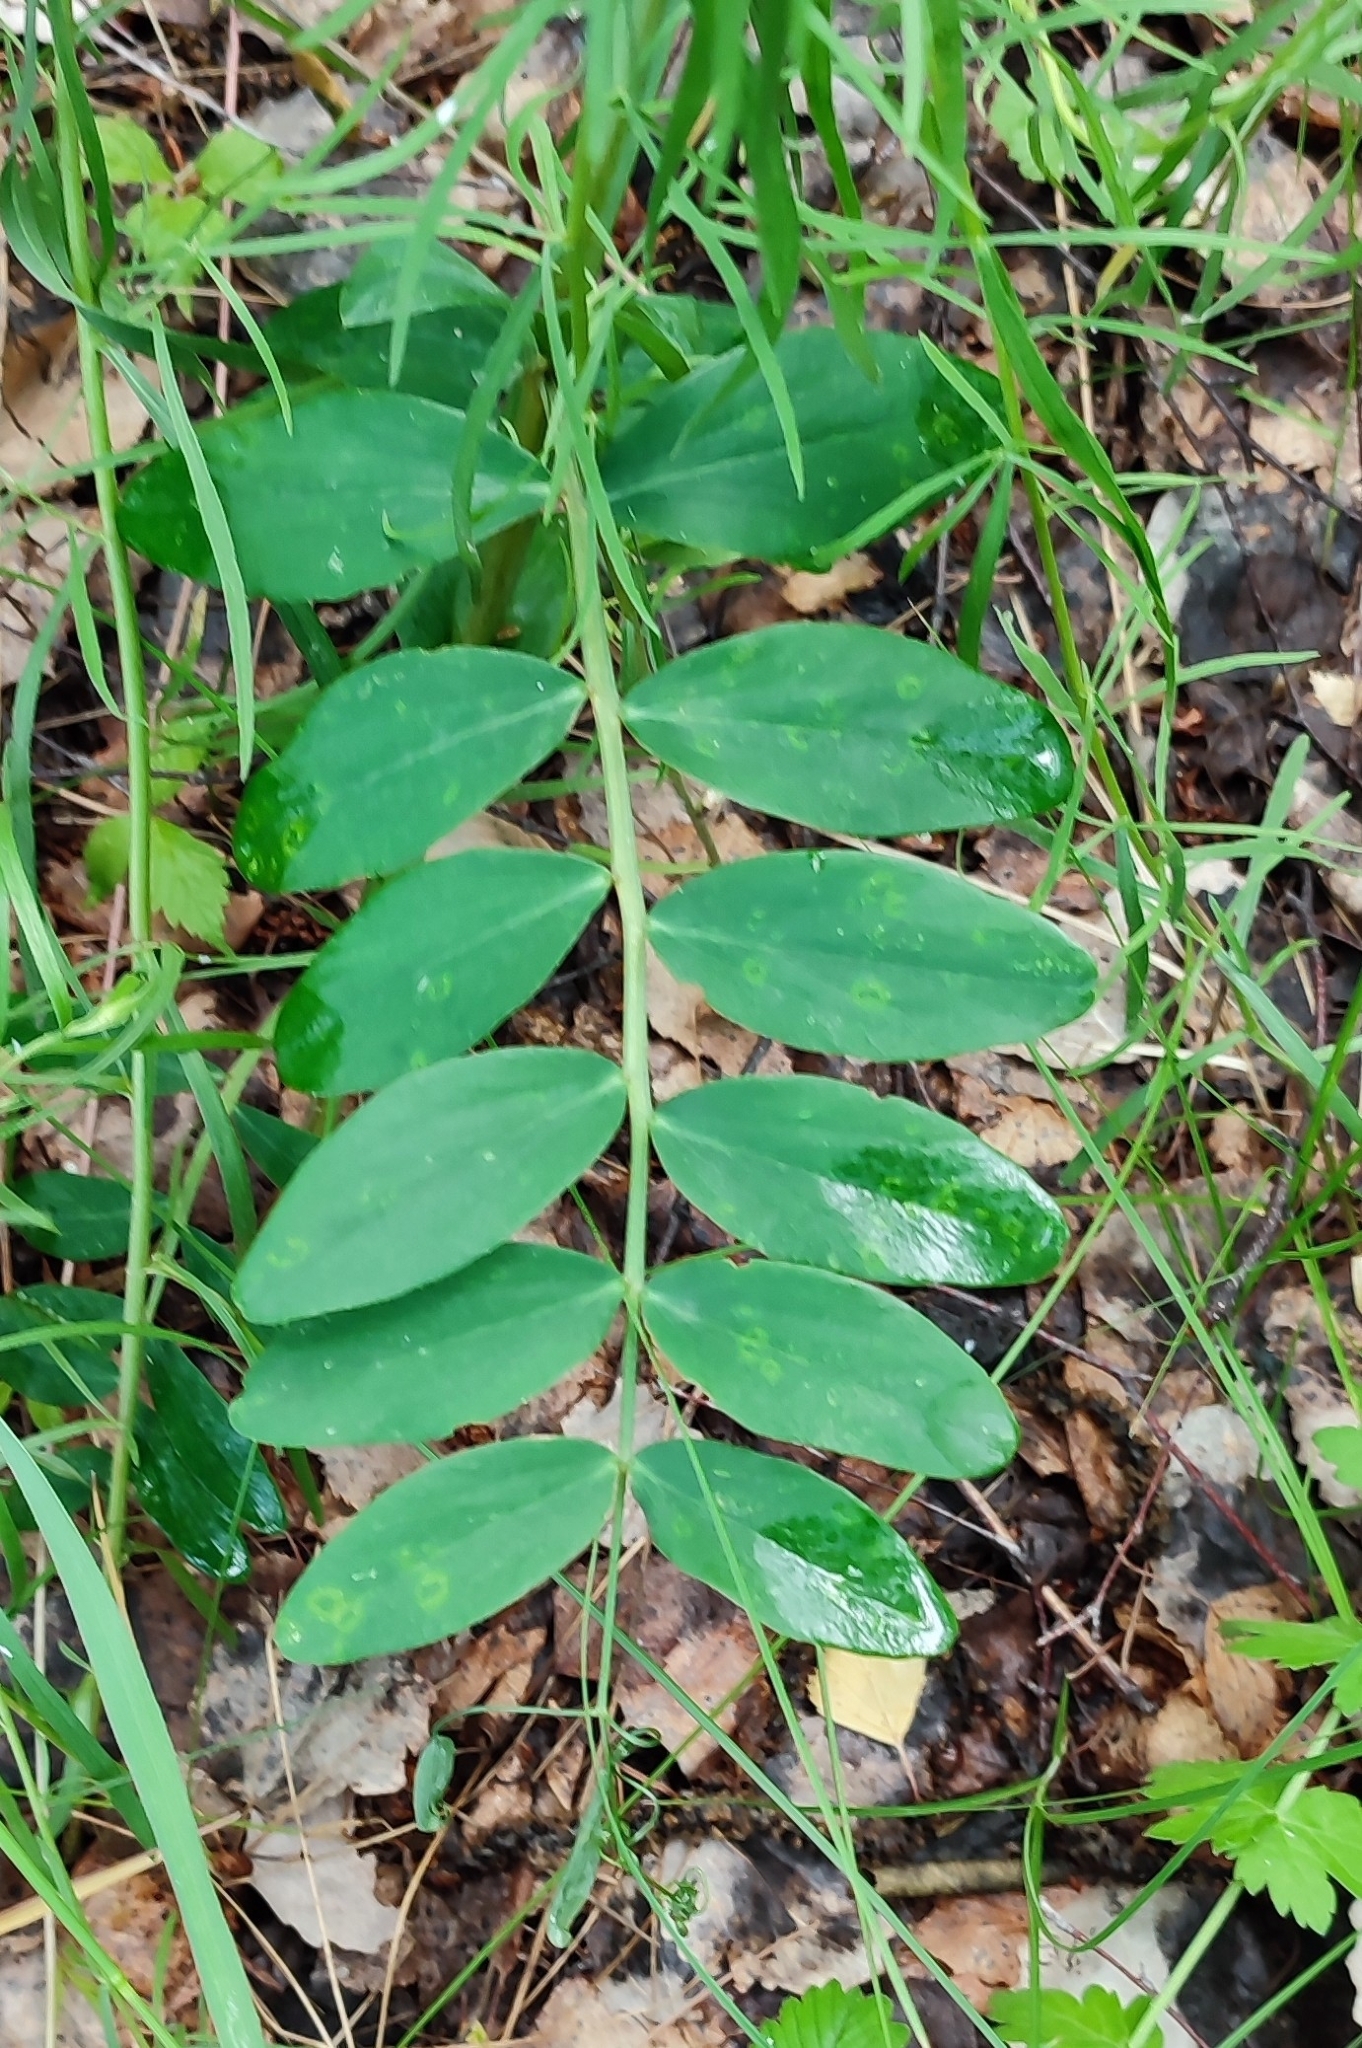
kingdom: Plantae
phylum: Tracheophyta
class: Magnoliopsida
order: Fabales
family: Fabaceae
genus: Lathyrus
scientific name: Lathyrus pisiformis
